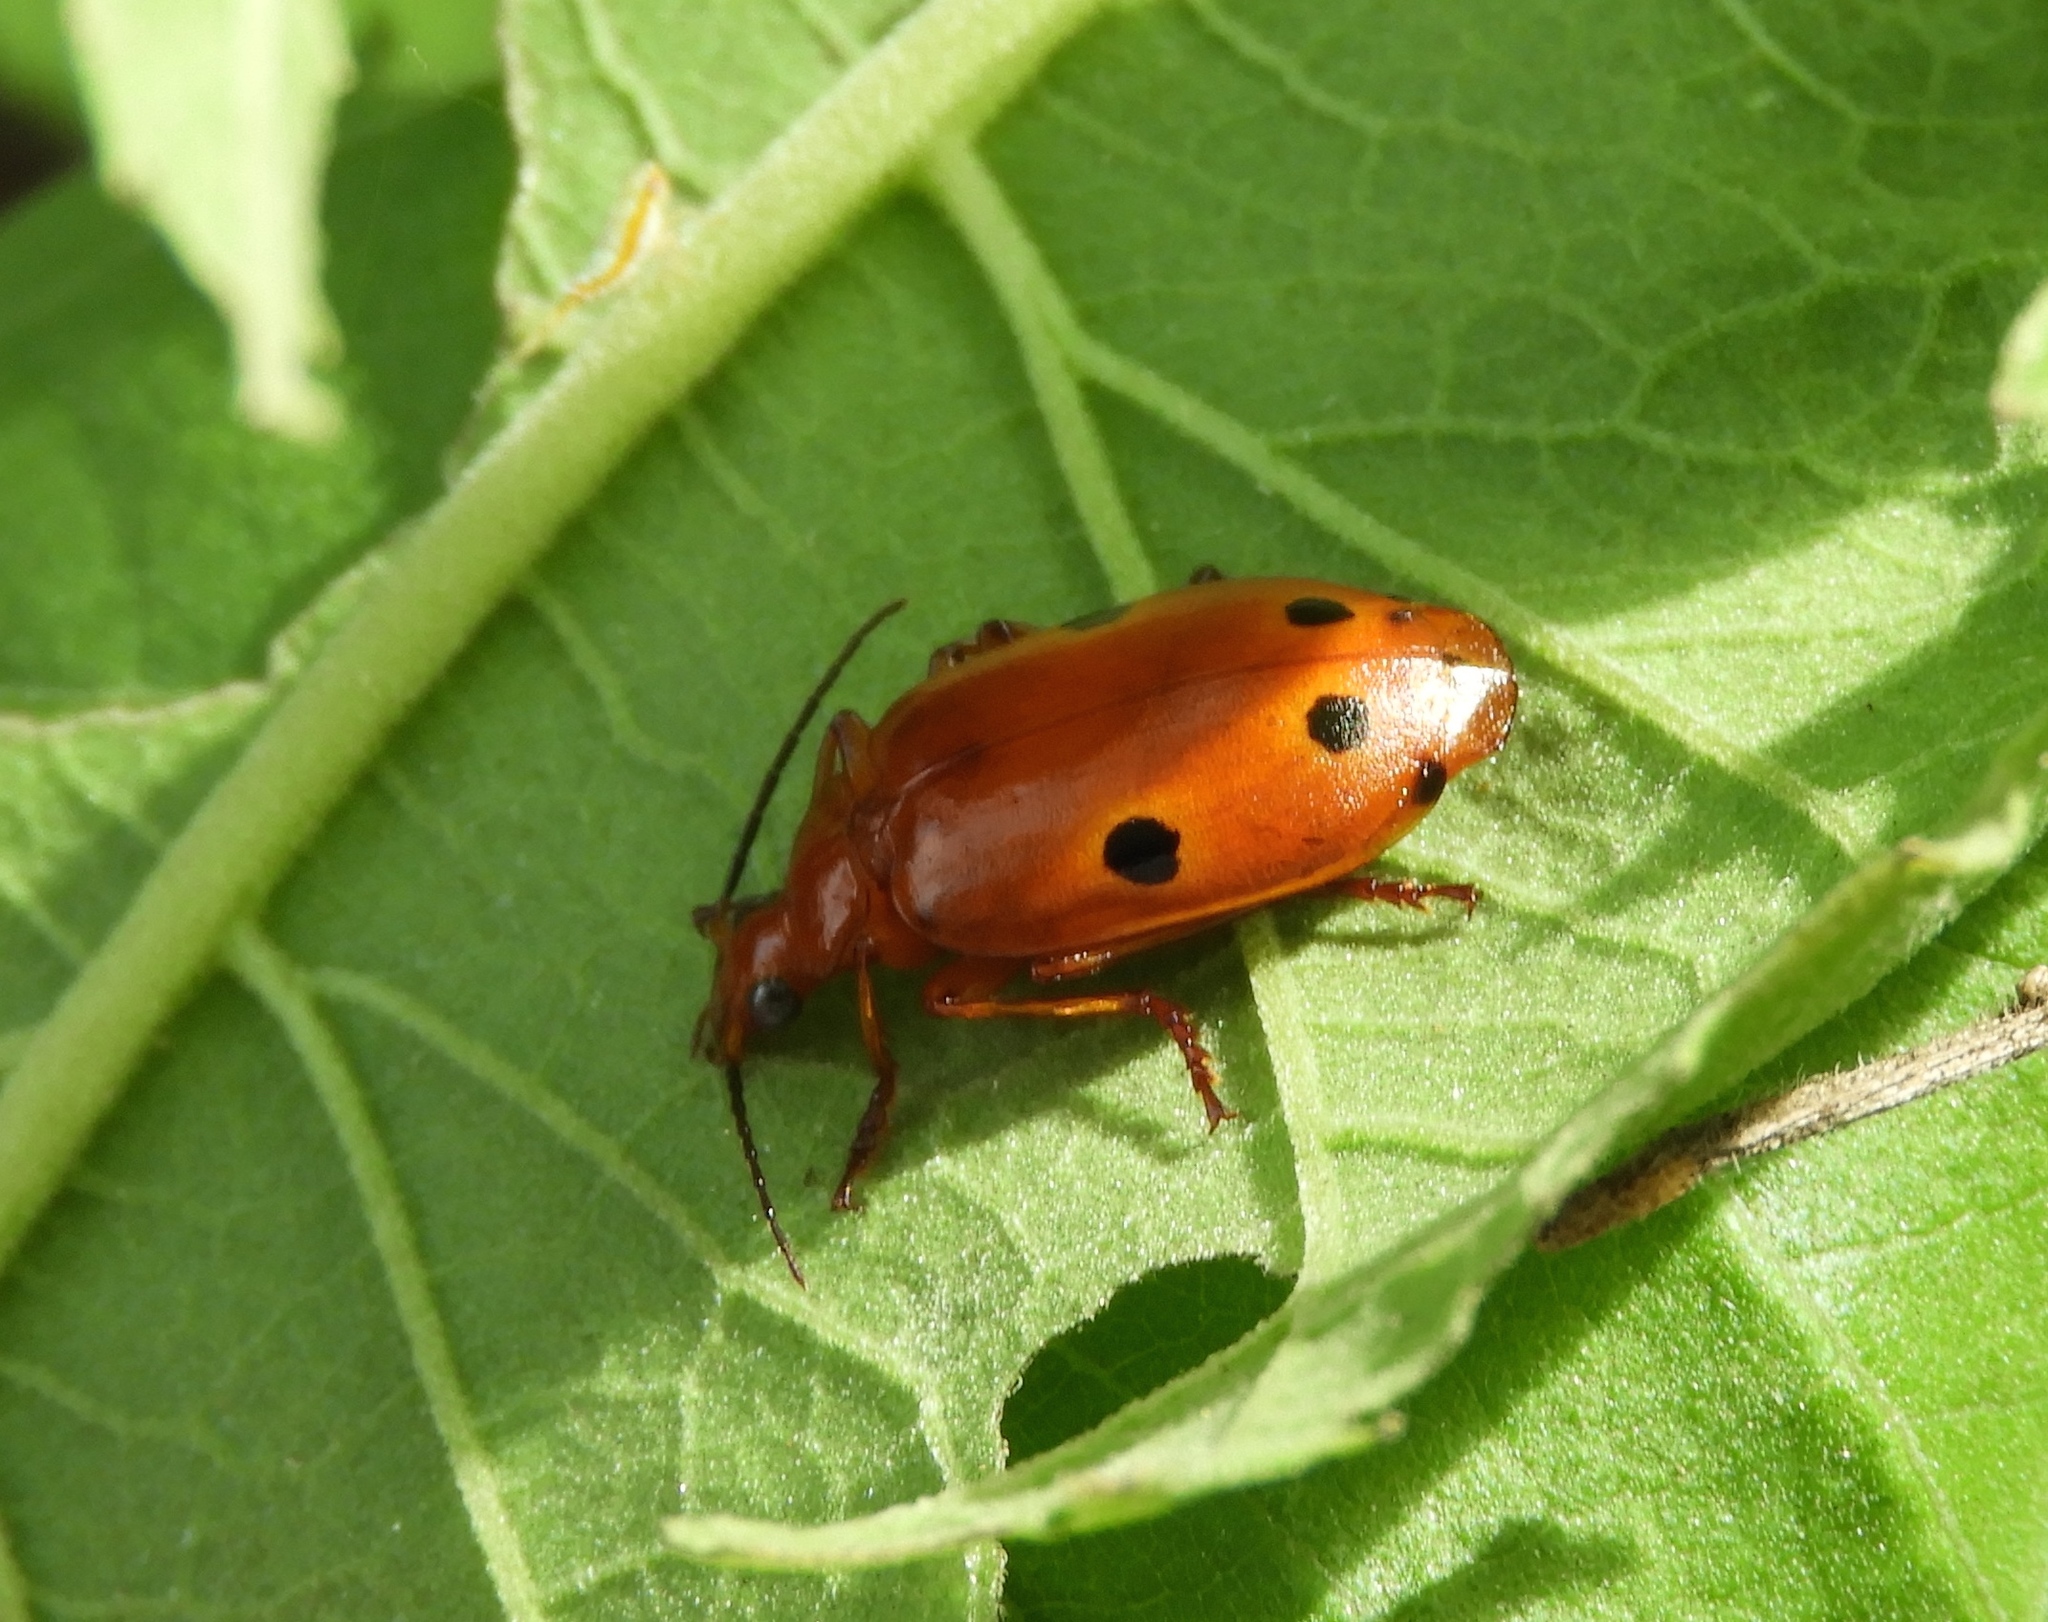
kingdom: Animalia
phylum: Arthropoda
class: Insecta
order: Coleoptera
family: Carabidae
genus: Lebia
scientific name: Lebia ocelligera
